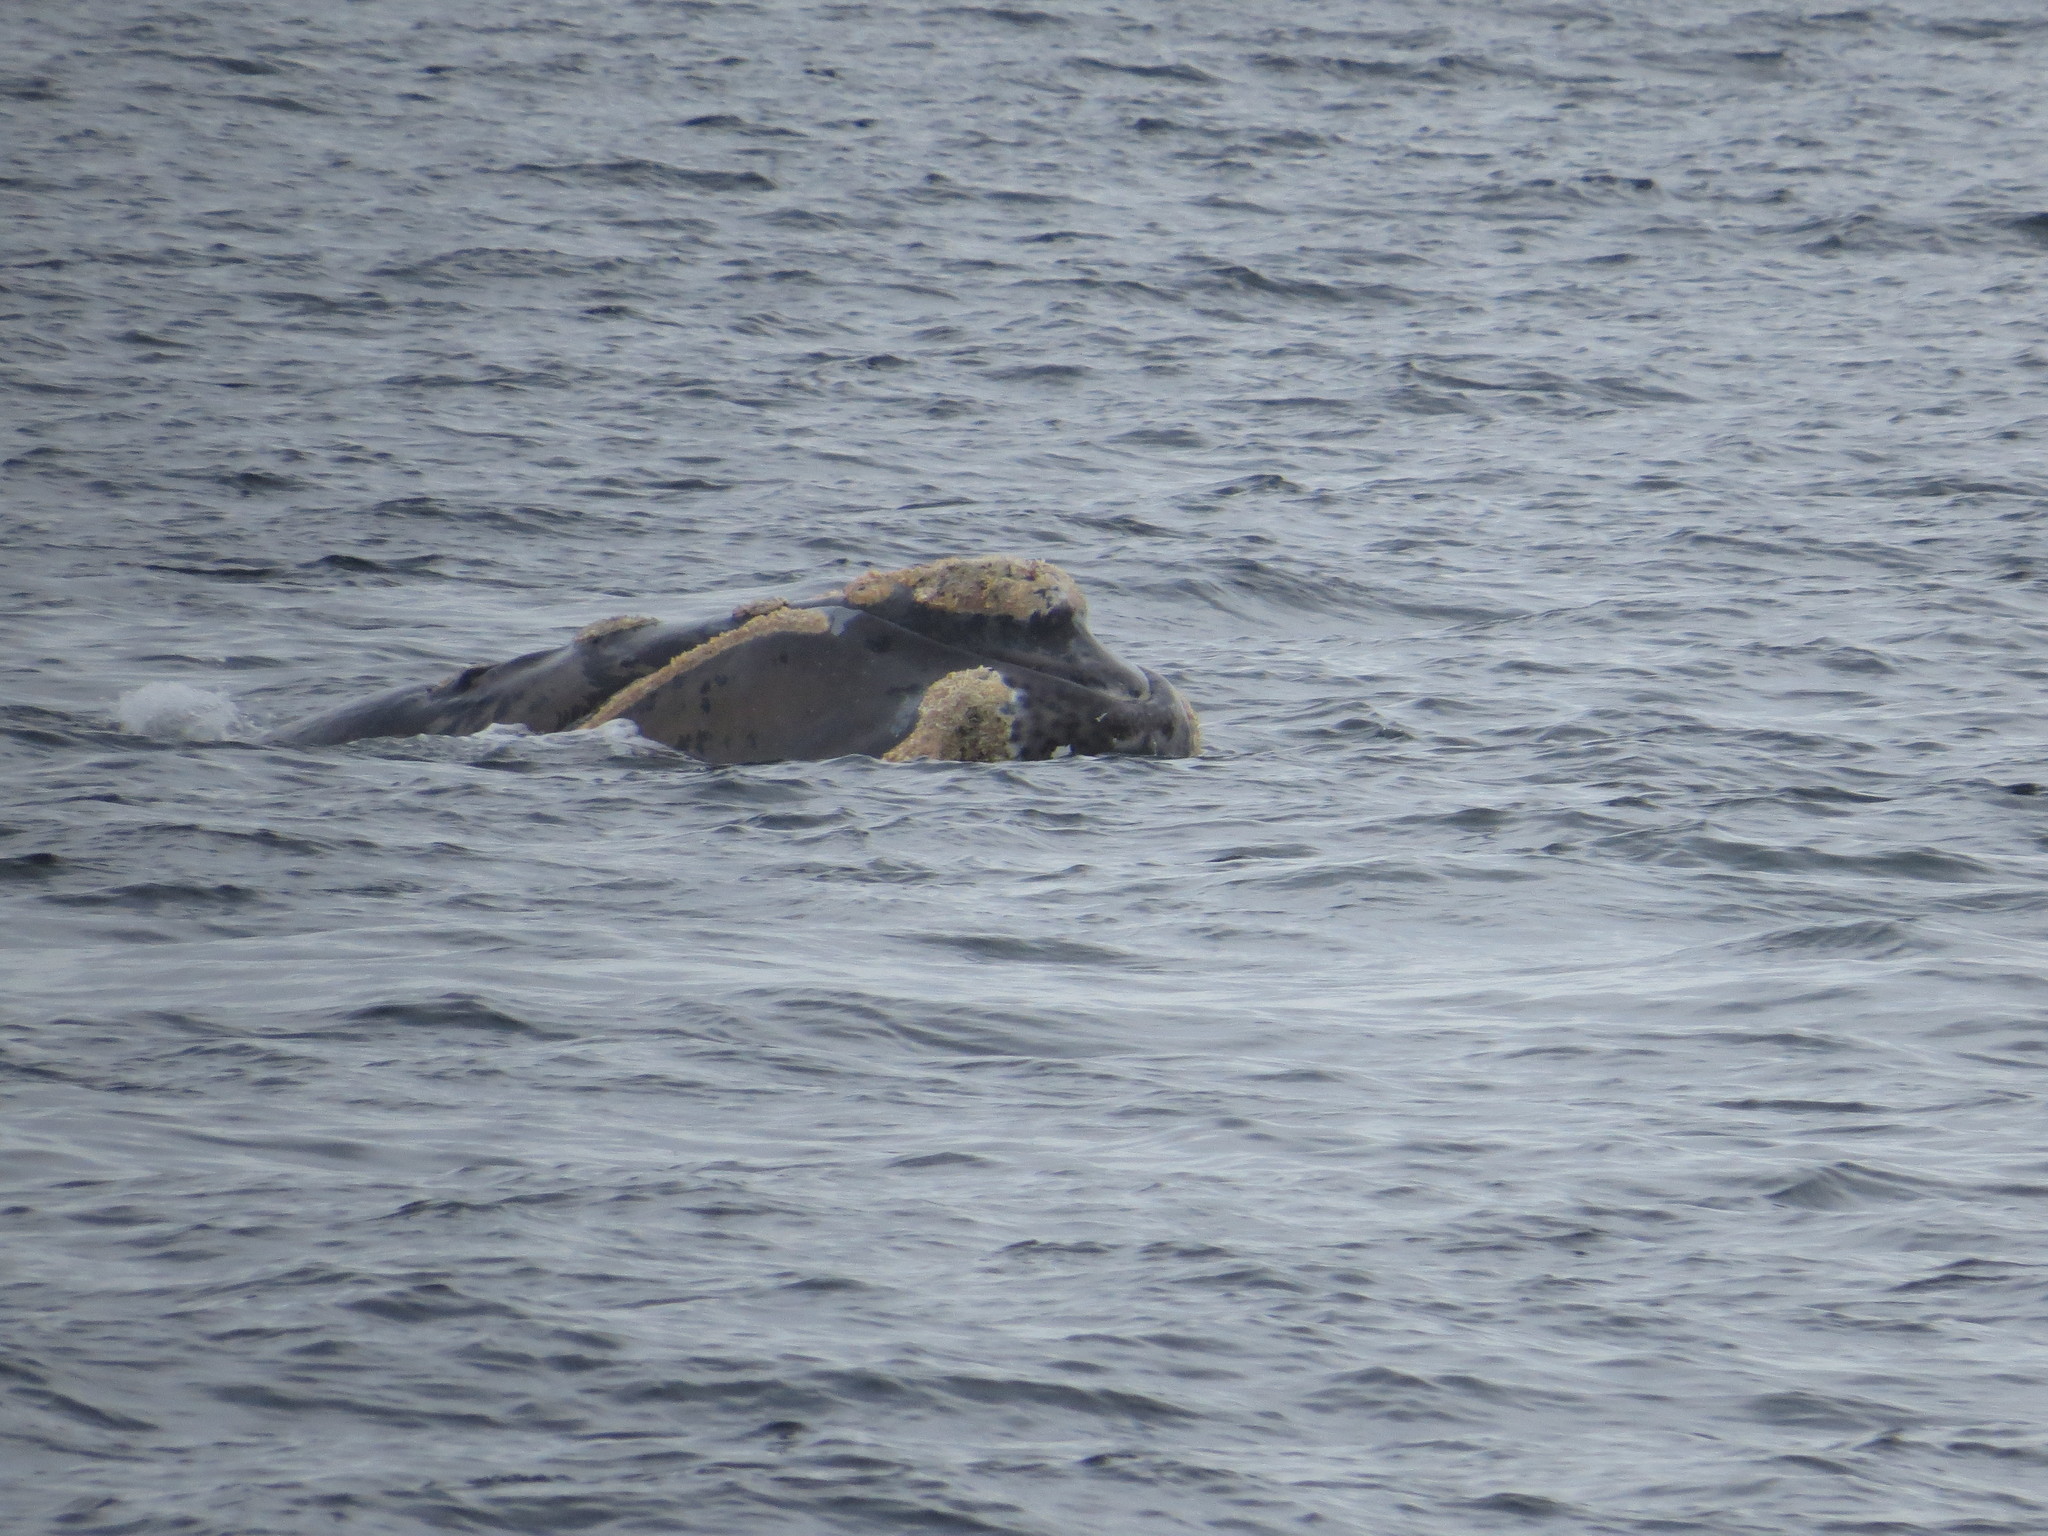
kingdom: Animalia
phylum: Chordata
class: Mammalia
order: Cetacea
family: Balaenidae
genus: Eubalaena
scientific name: Eubalaena australis
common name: Southern right whale
